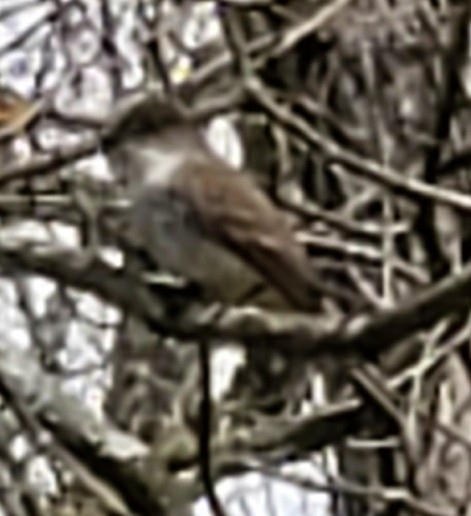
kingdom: Animalia
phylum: Chordata
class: Aves
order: Passeriformes
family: Tyrannidae
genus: Sayornis
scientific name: Sayornis phoebe
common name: Eastern phoebe
